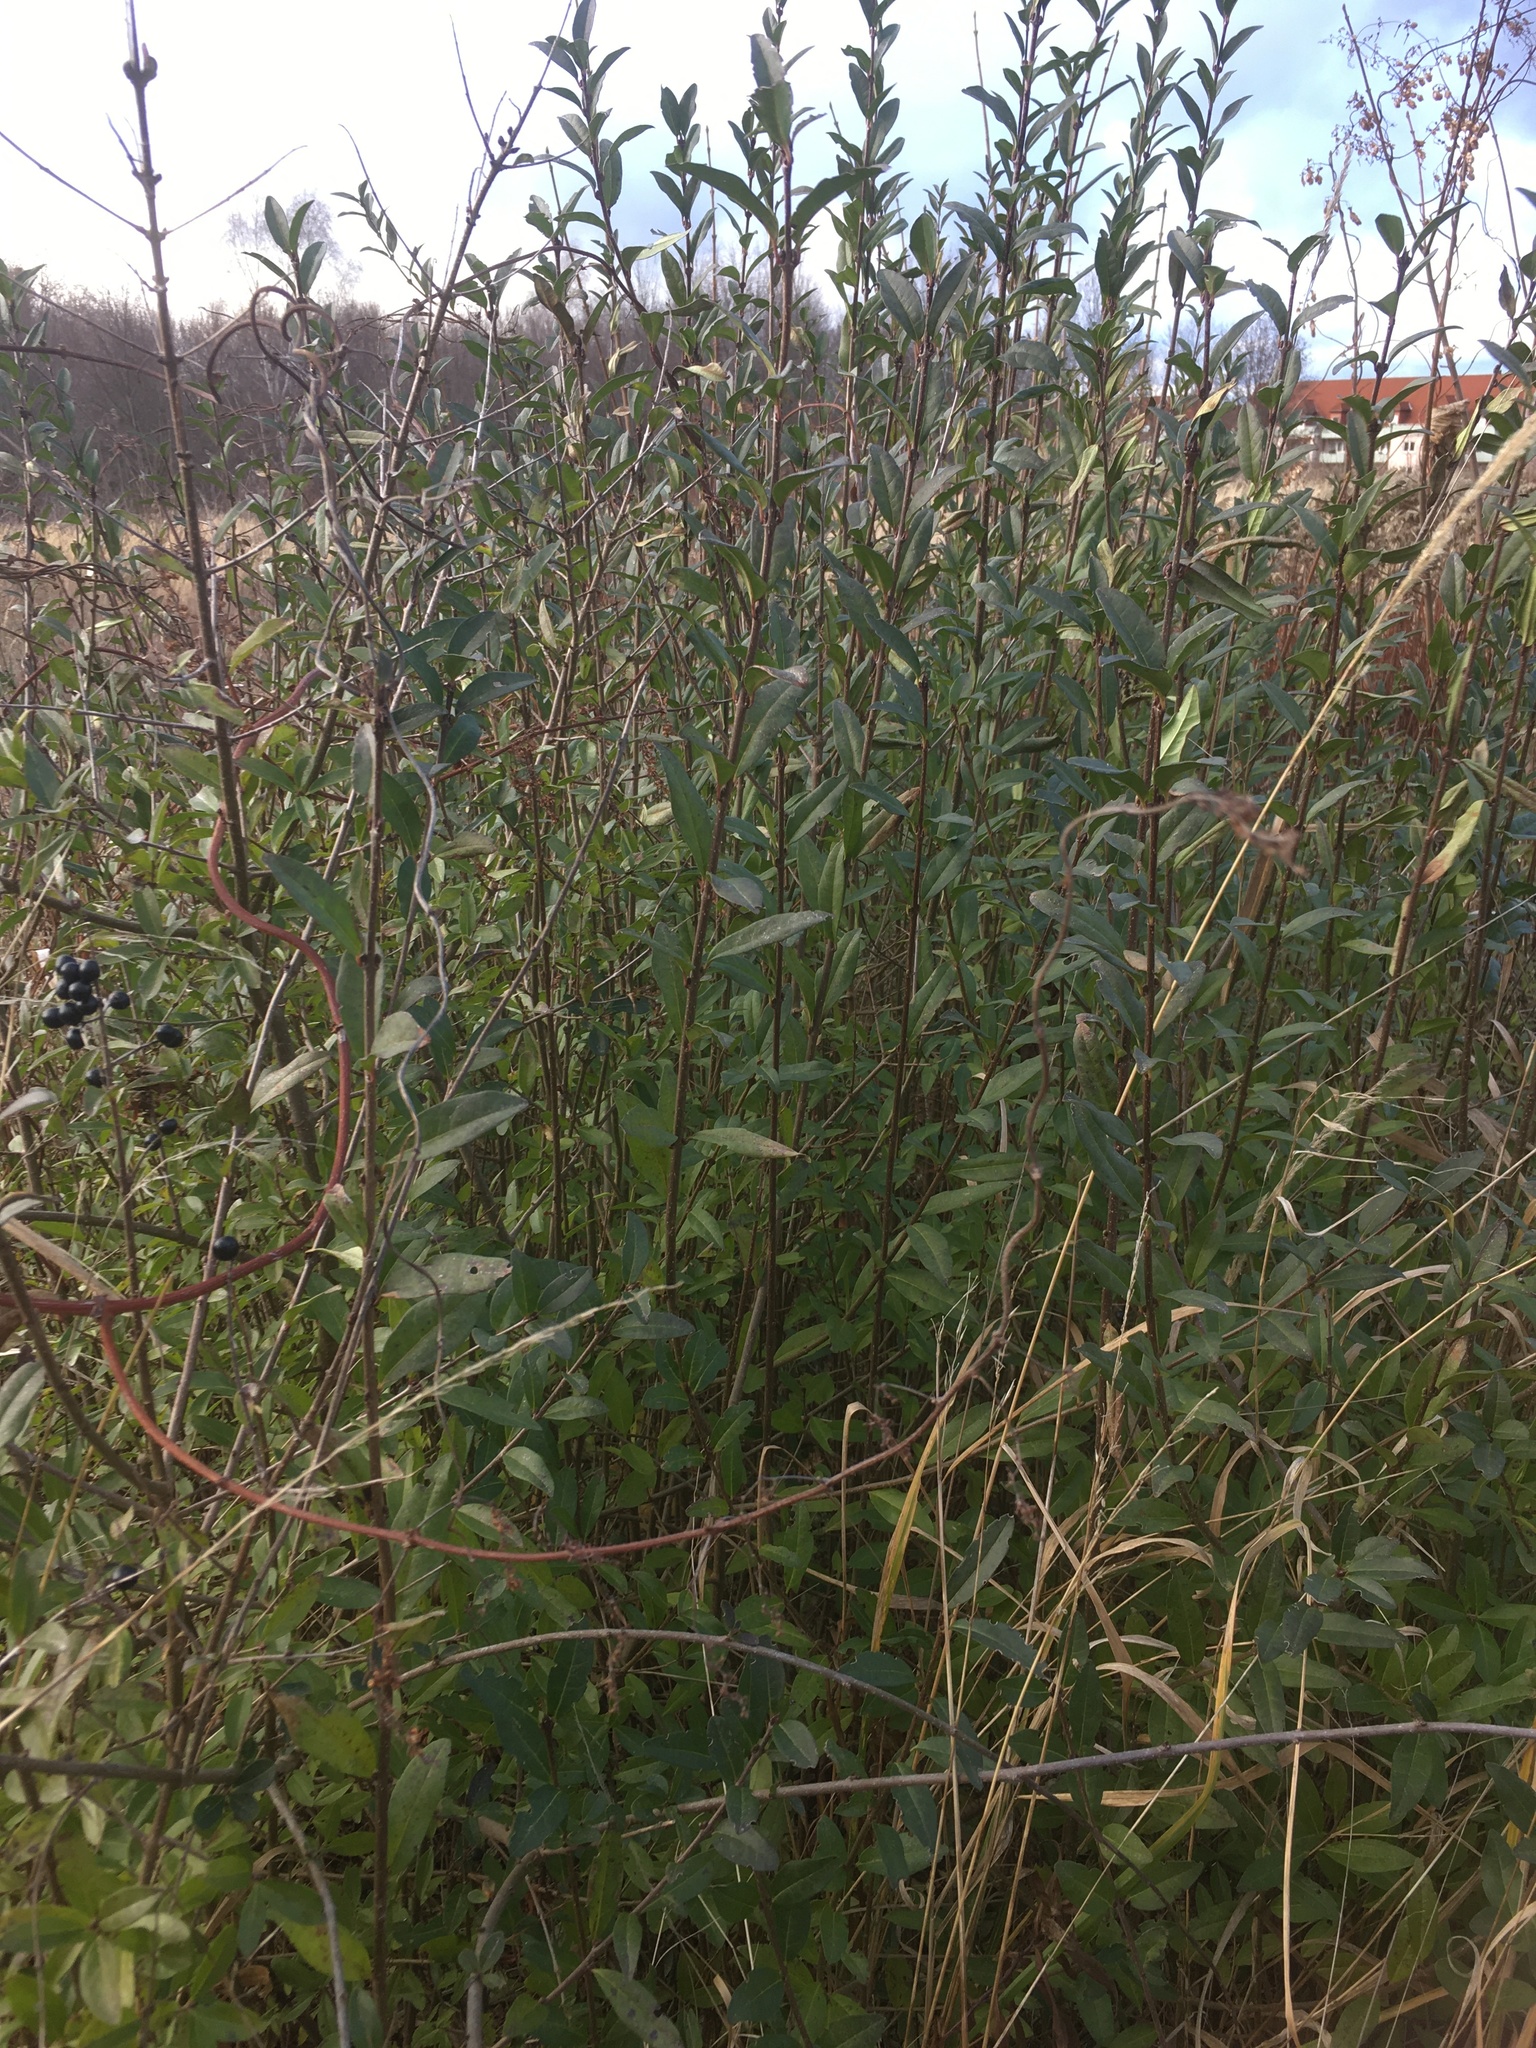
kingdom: Plantae
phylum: Tracheophyta
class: Magnoliopsida
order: Lamiales
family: Oleaceae
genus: Ligustrum
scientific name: Ligustrum vulgare
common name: Wild privet
